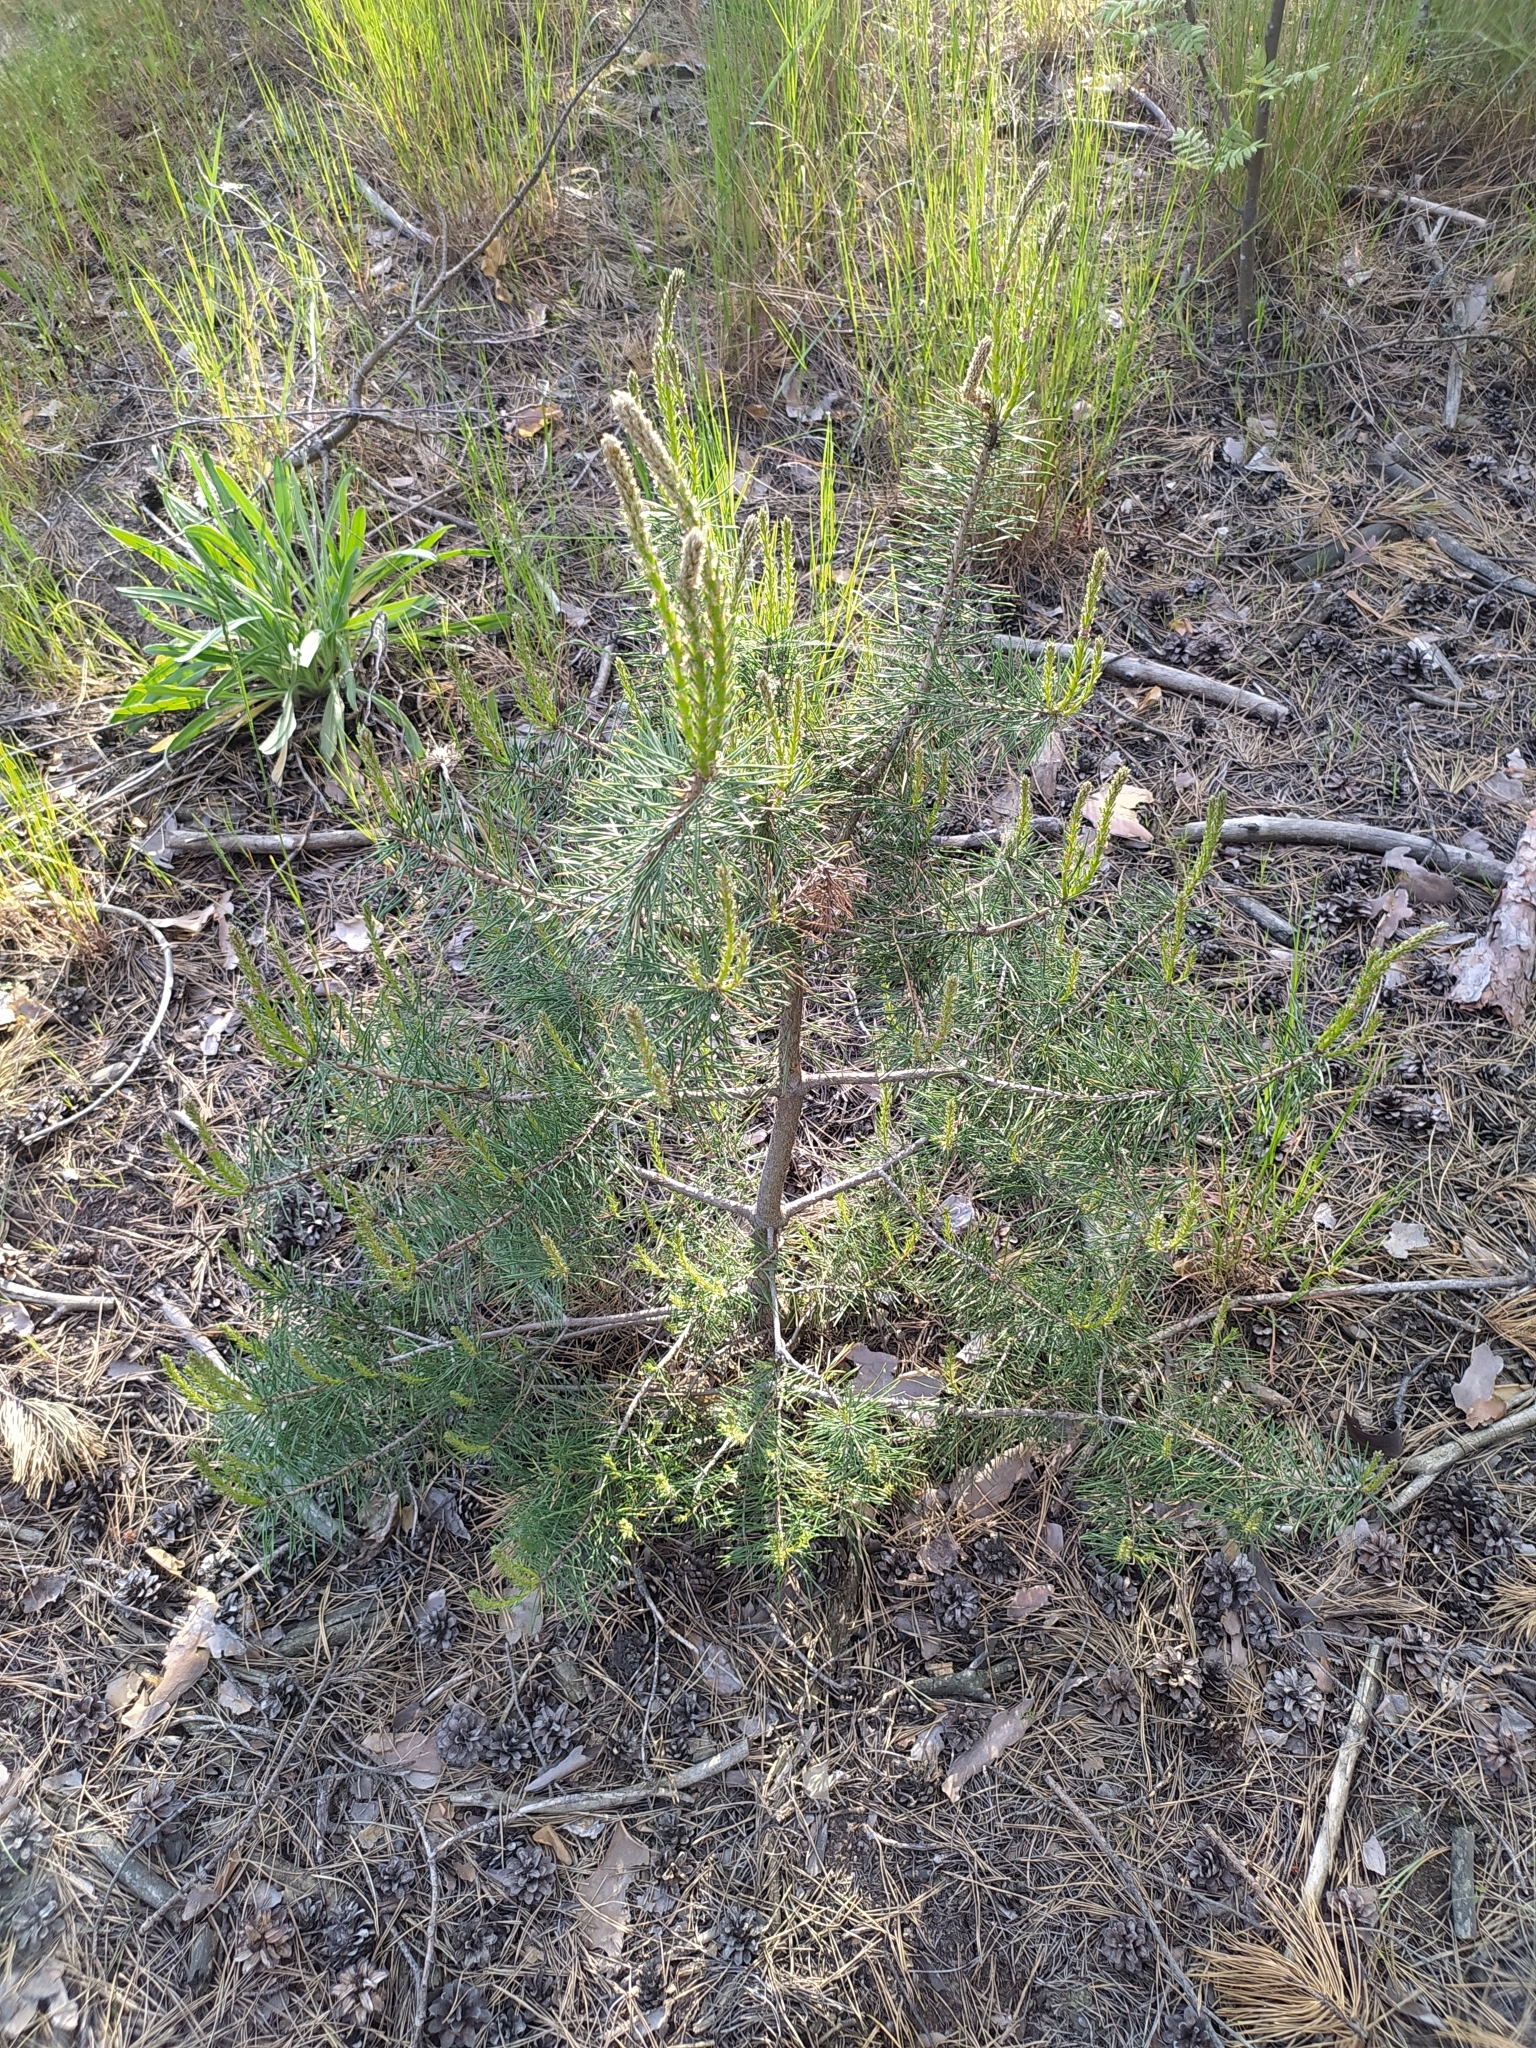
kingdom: Plantae
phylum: Tracheophyta
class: Pinopsida
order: Pinales
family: Pinaceae
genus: Pinus
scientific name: Pinus sylvestris
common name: Scots pine
